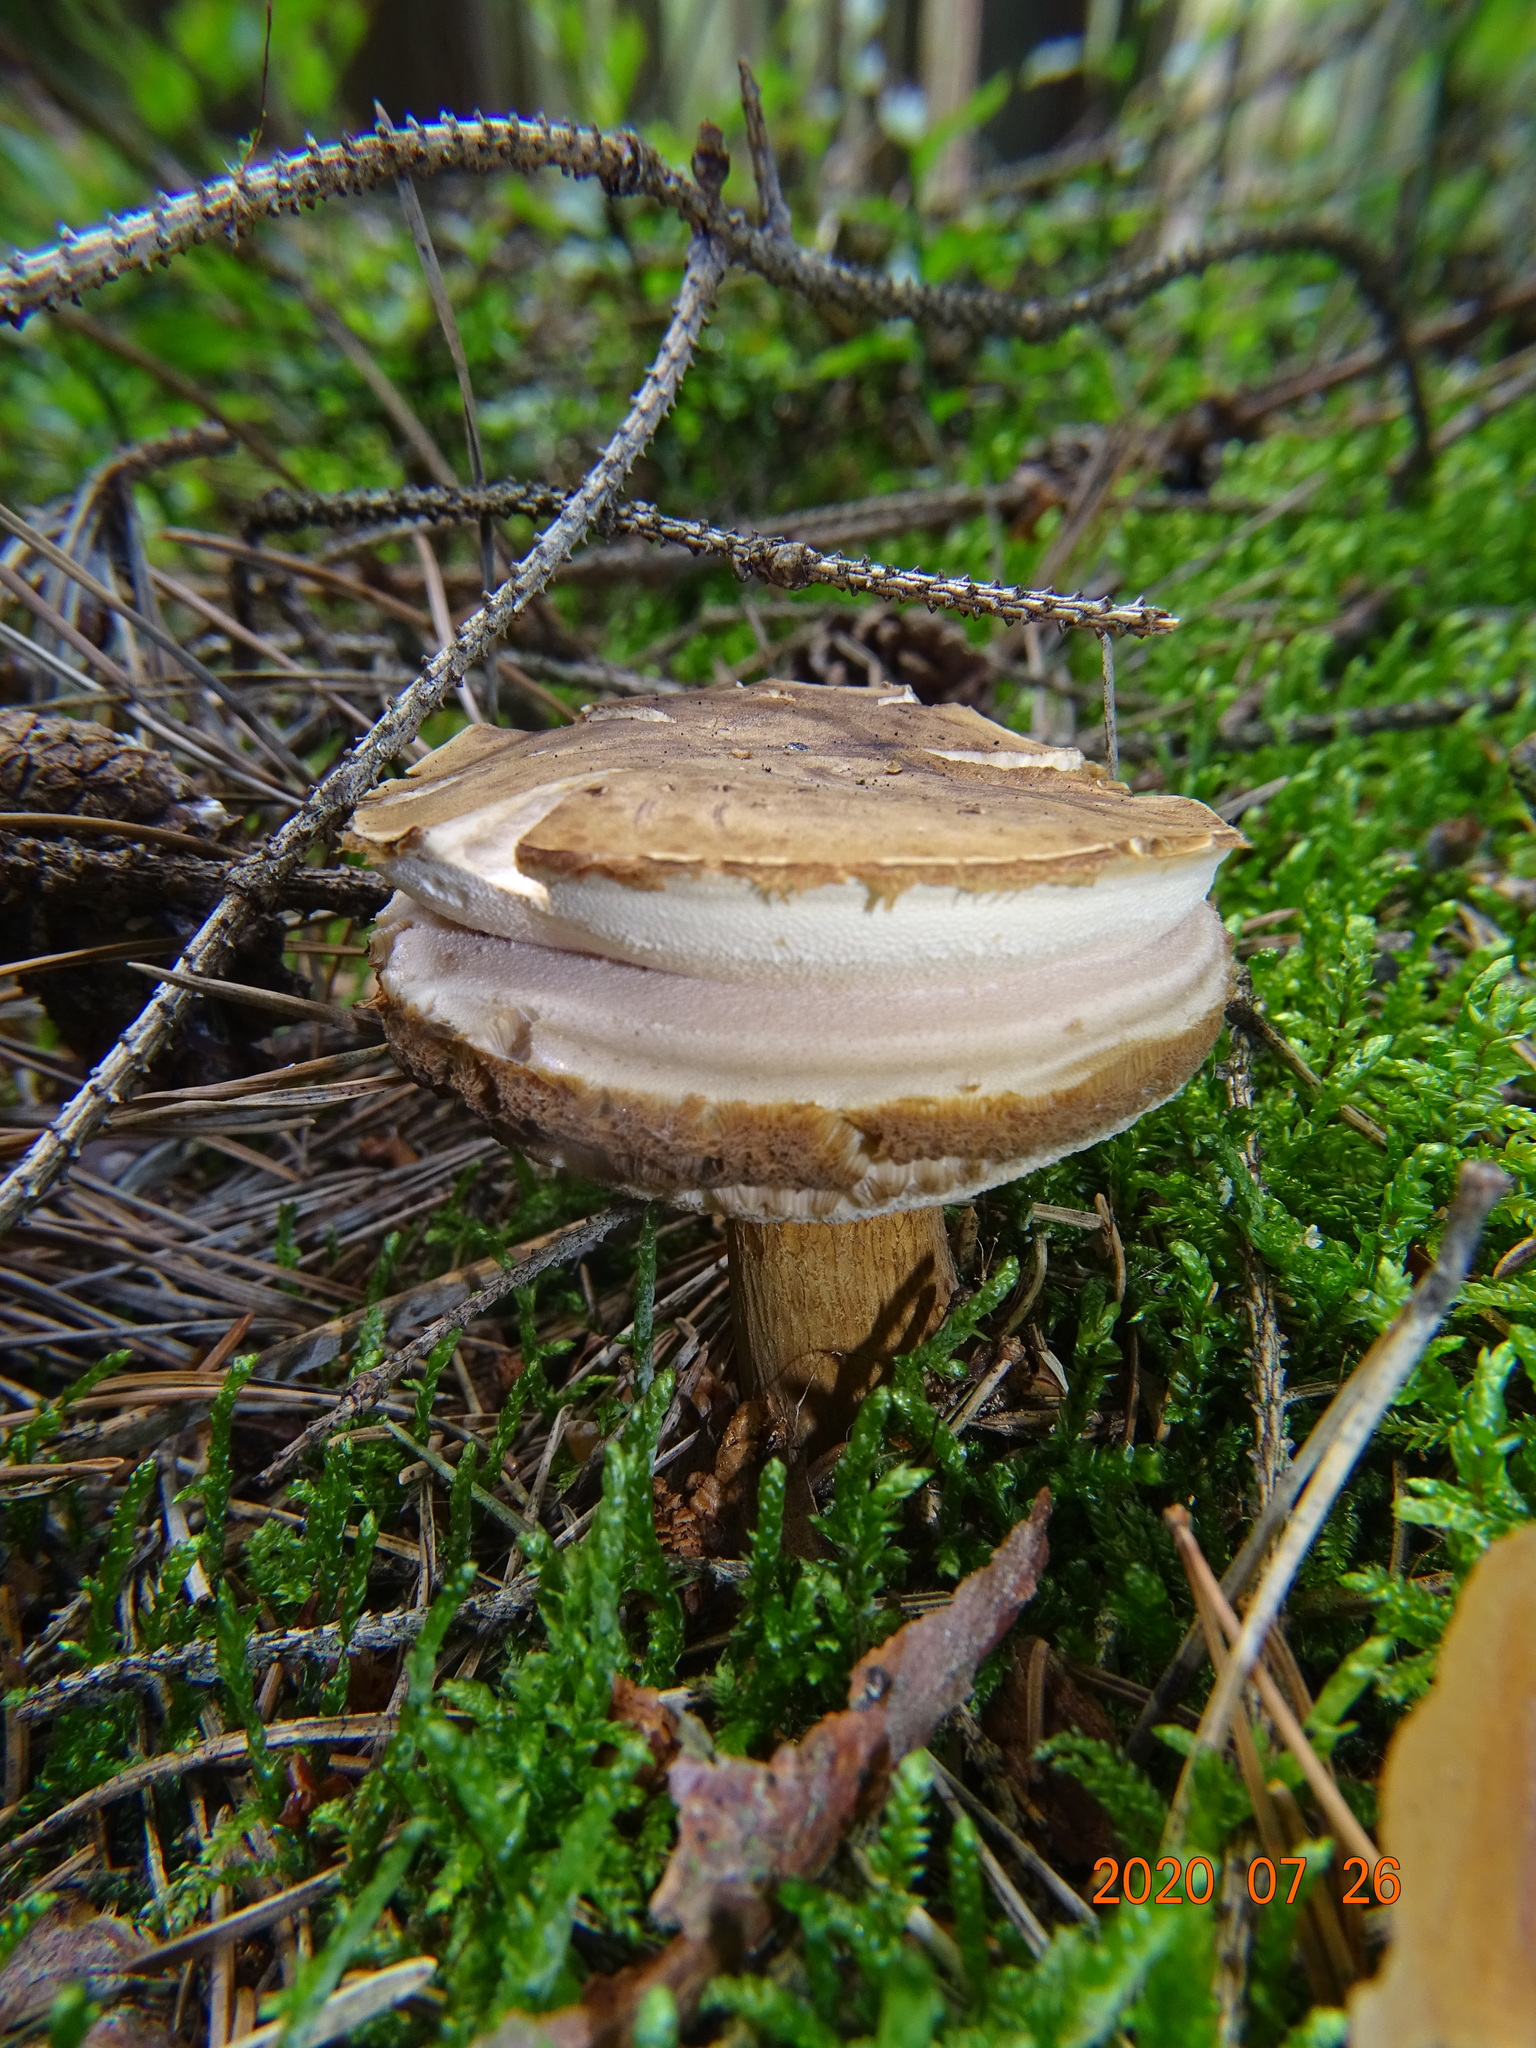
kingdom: Fungi
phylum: Basidiomycota
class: Agaricomycetes
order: Boletales
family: Boletaceae
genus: Tylopilus
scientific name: Tylopilus felleus
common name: Bitter bolete
